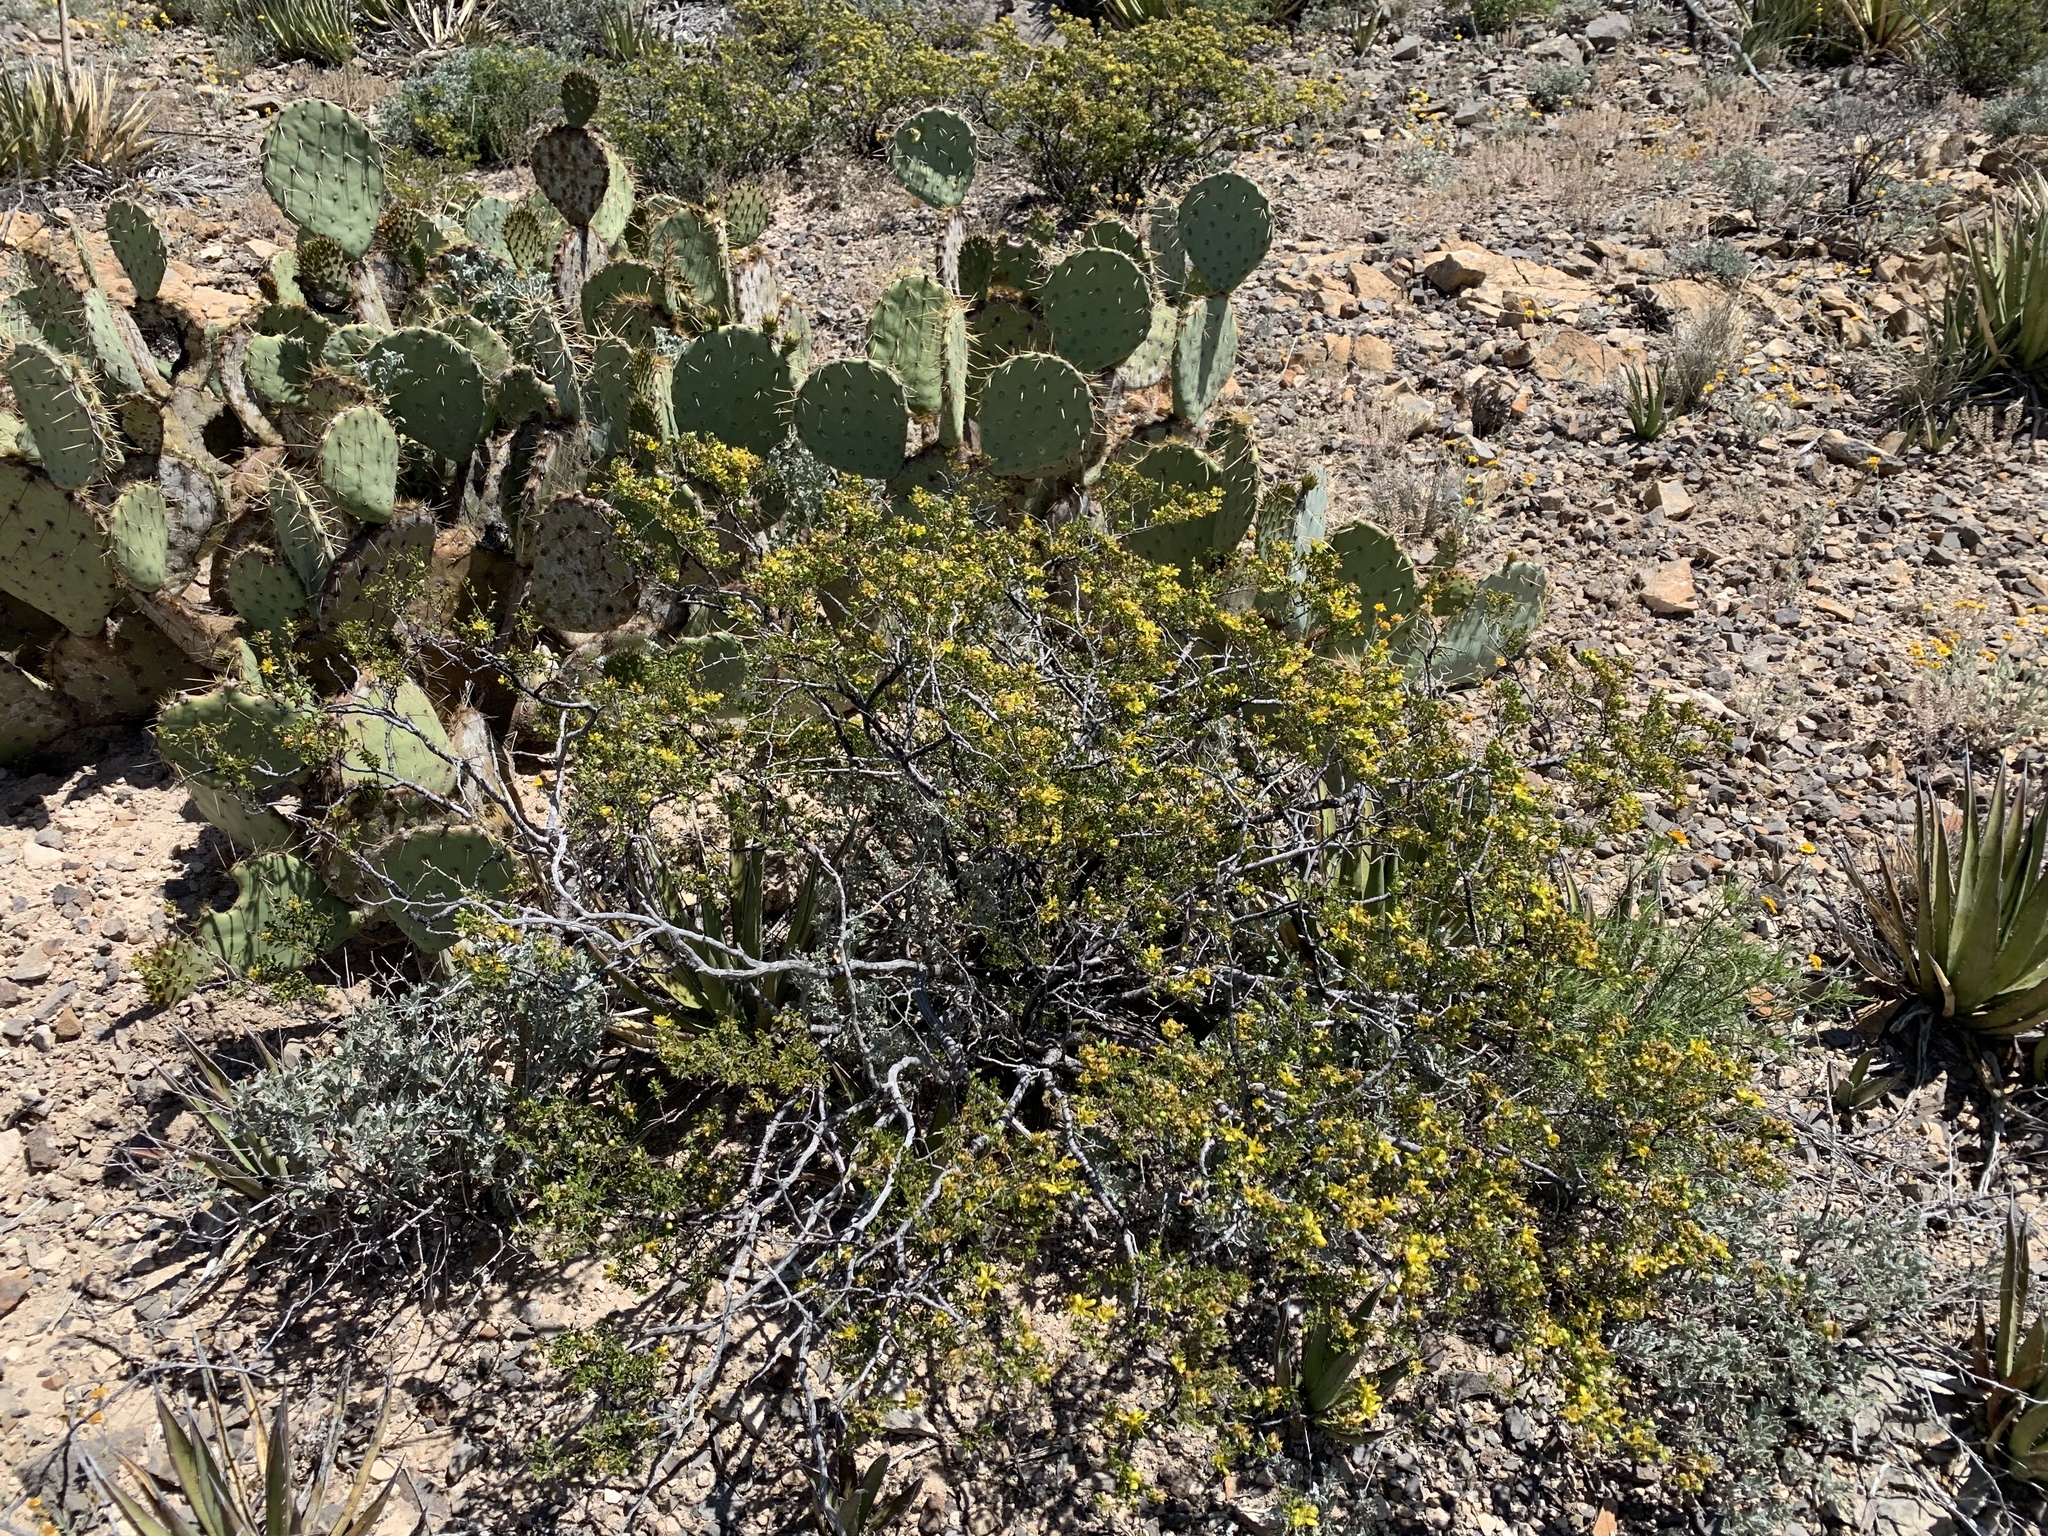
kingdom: Plantae
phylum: Tracheophyta
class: Magnoliopsida
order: Zygophyllales
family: Zygophyllaceae
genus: Larrea
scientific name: Larrea tridentata
